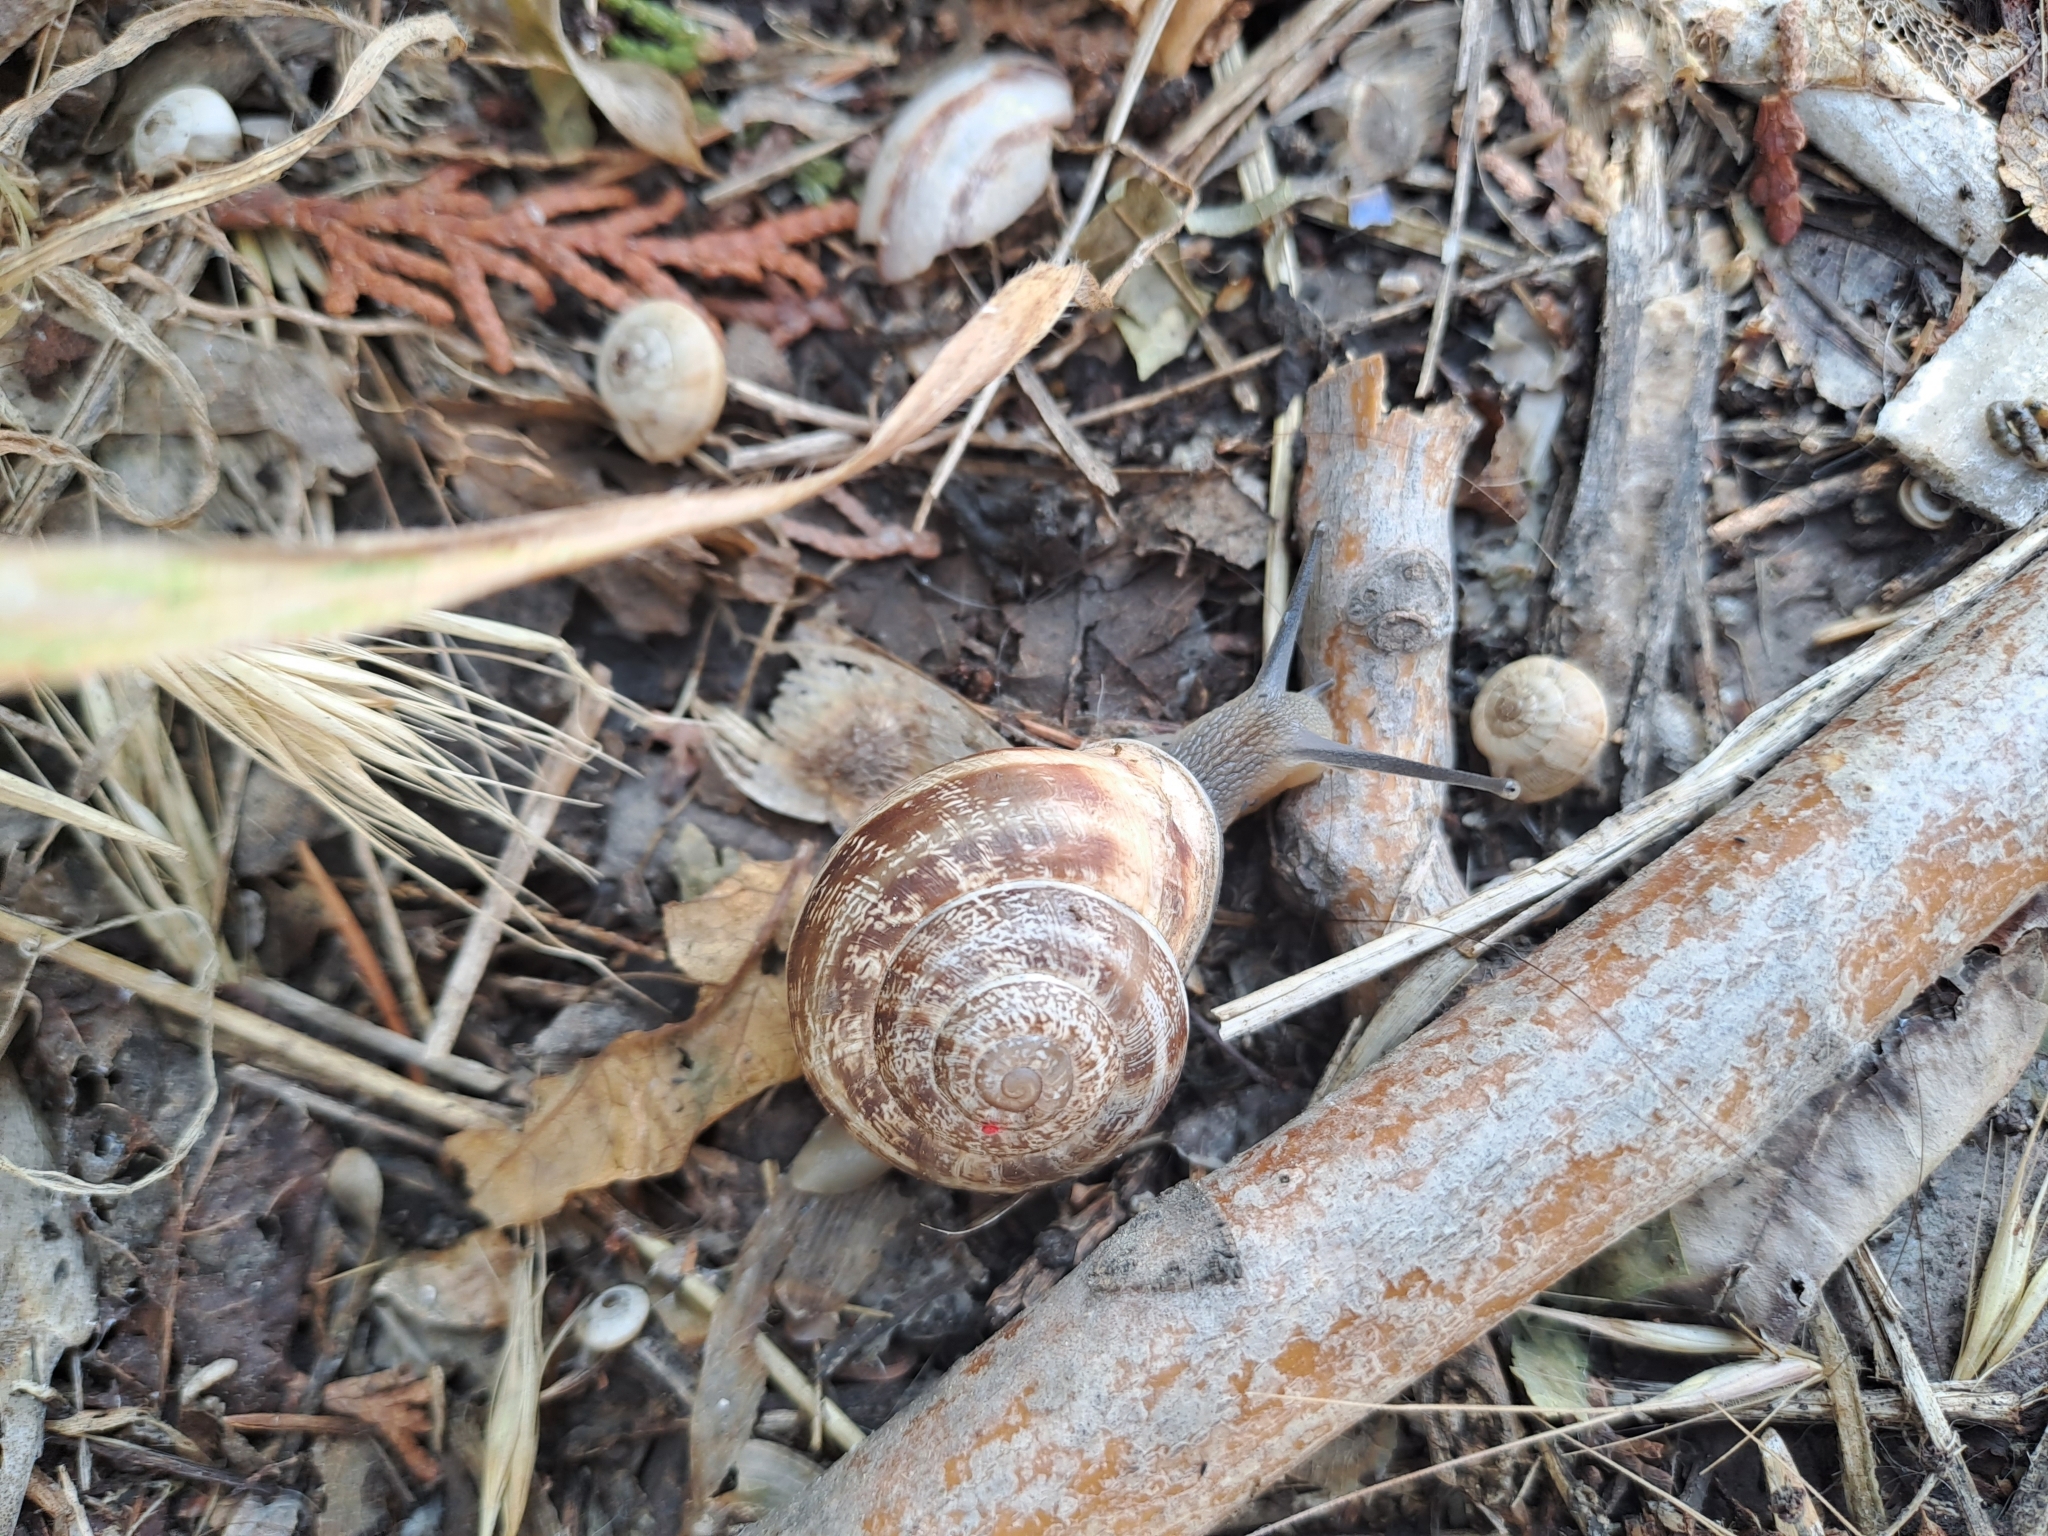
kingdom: Animalia
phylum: Mollusca
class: Gastropoda
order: Stylommatophora
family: Helicidae
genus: Eobania
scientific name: Eobania vermiculata
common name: Chocolateband snail
